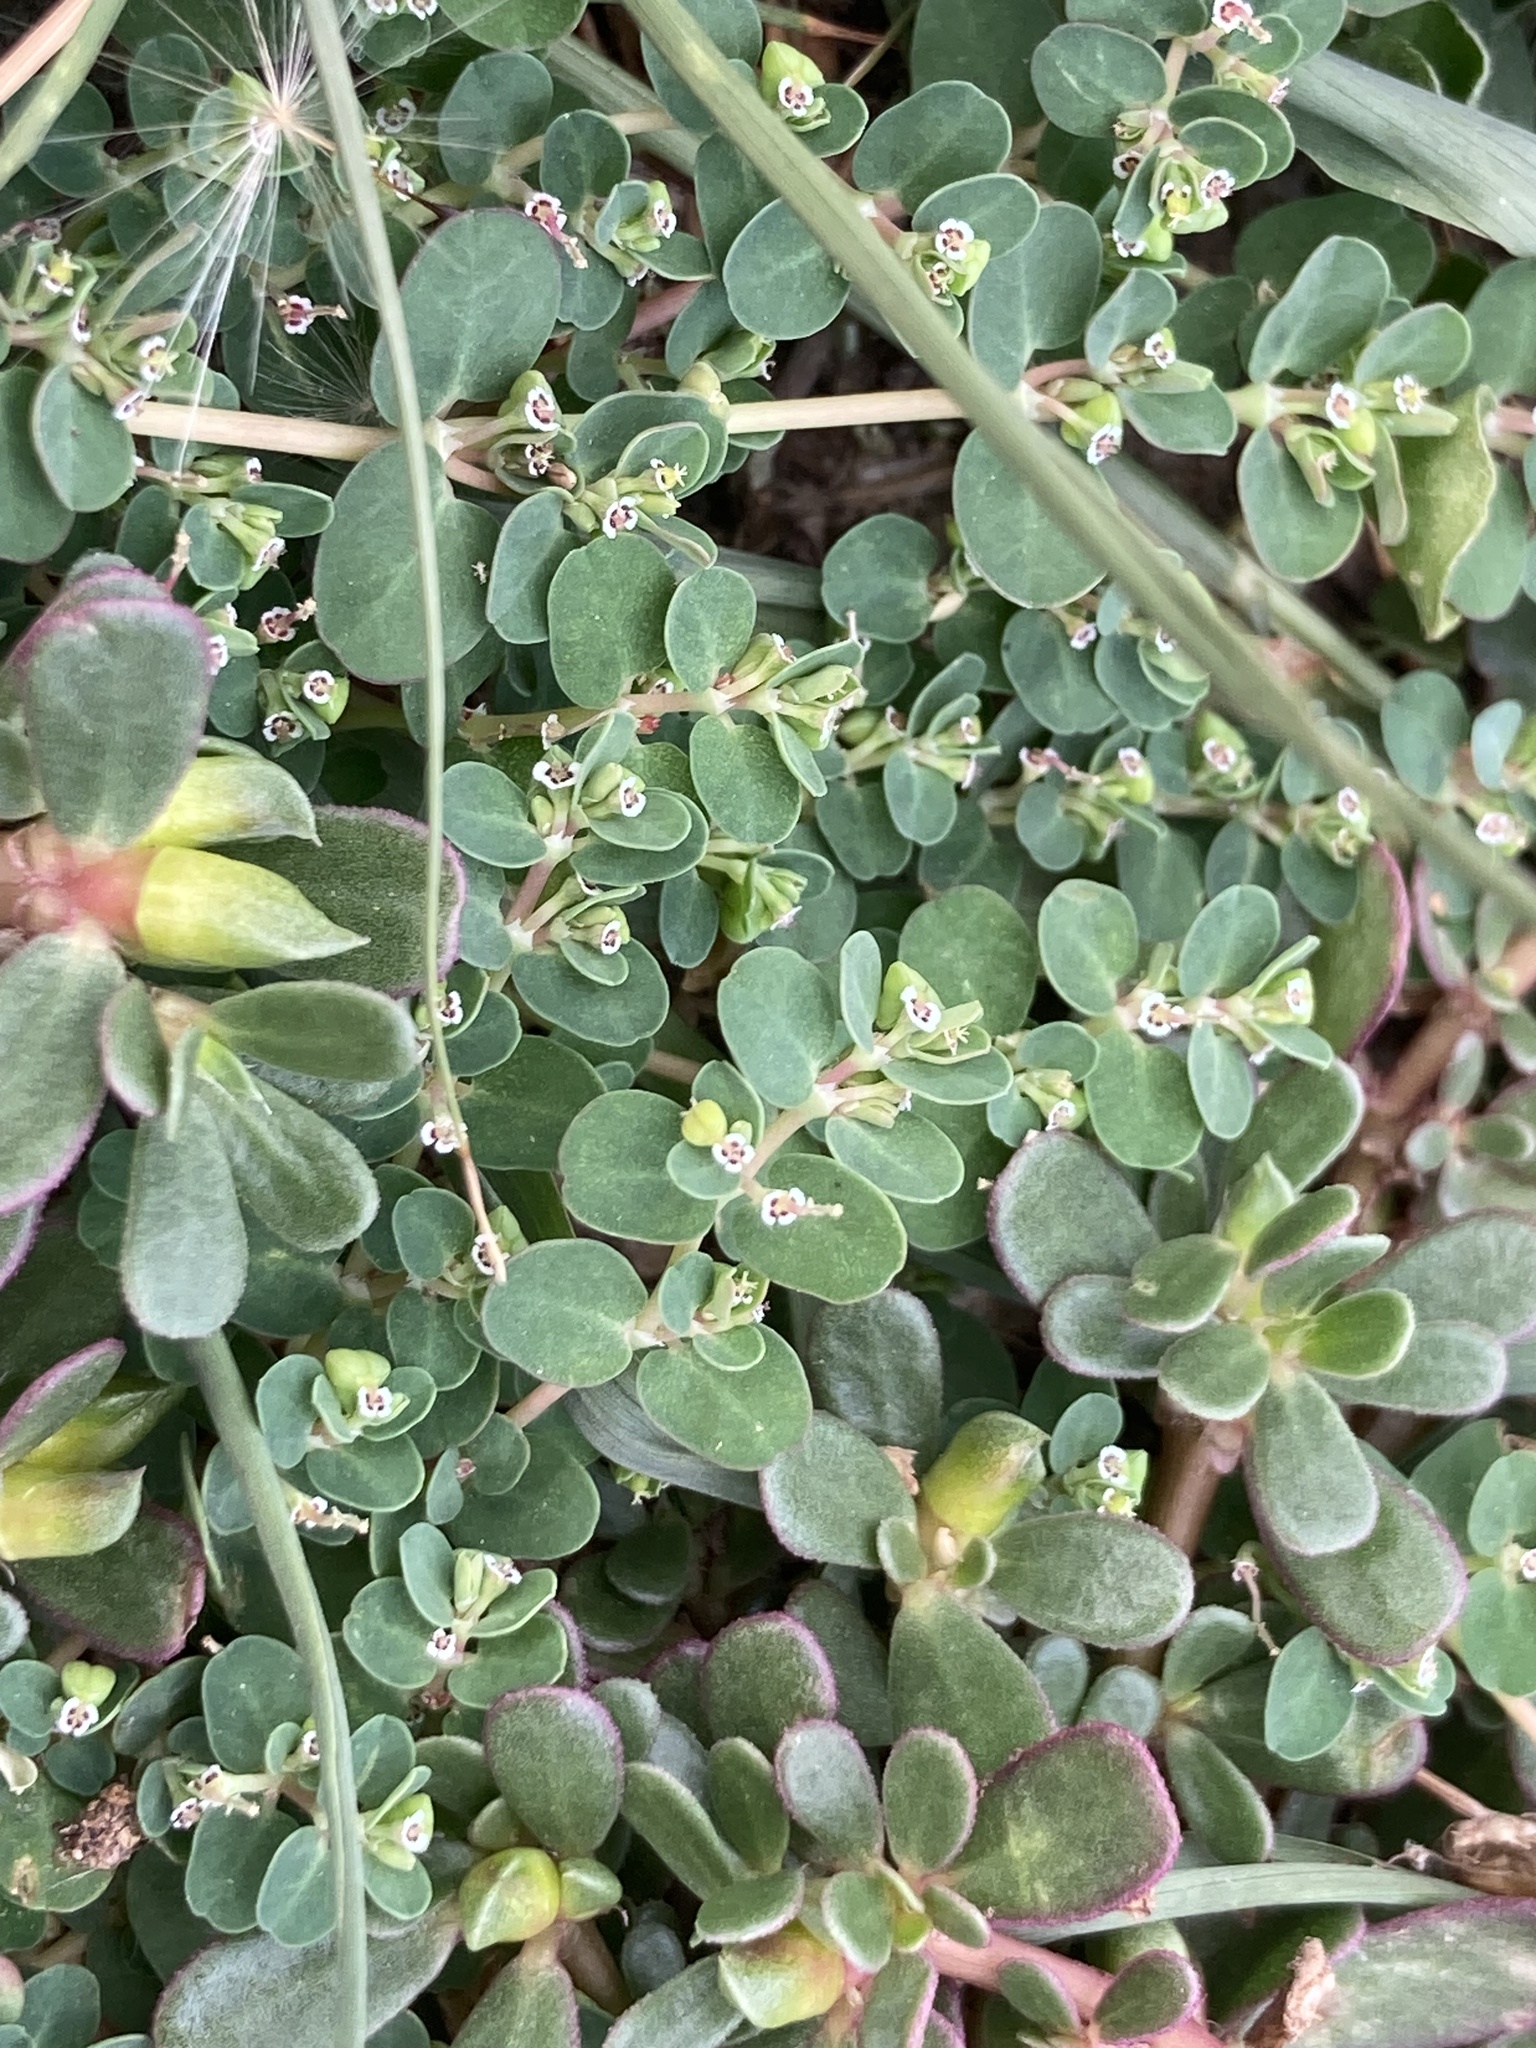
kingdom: Plantae
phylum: Tracheophyta
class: Magnoliopsida
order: Malpighiales
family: Euphorbiaceae
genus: Euphorbia
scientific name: Euphorbia serpens
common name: Matted sandmat
